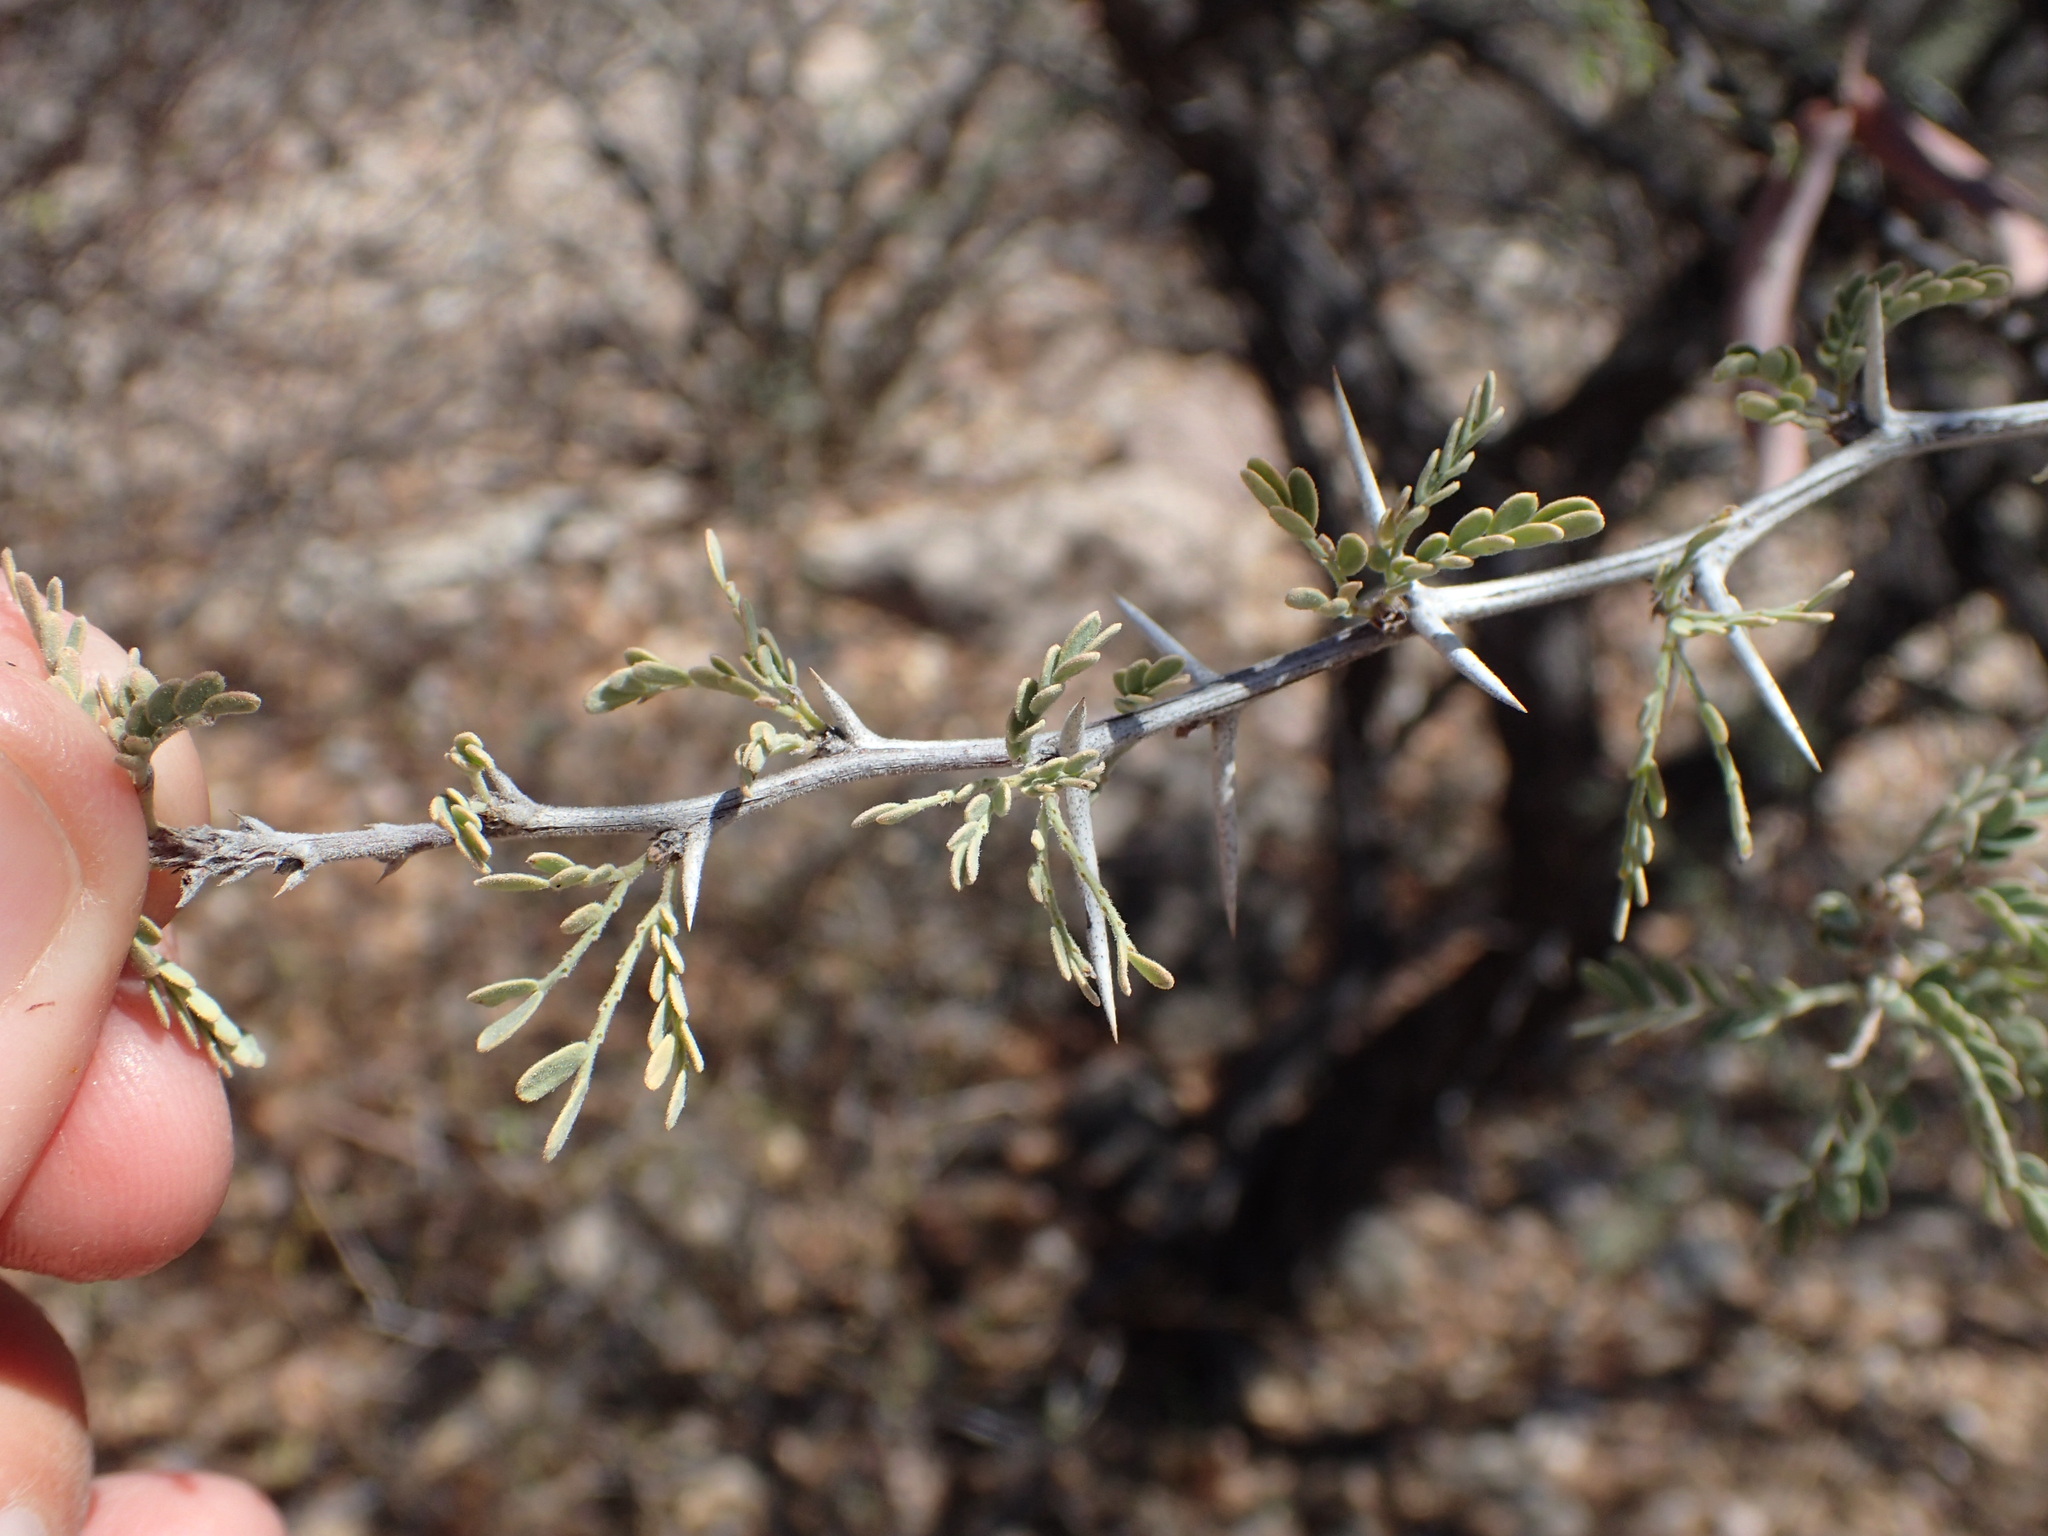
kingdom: Plantae
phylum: Tracheophyta
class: Magnoliopsida
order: Fabales
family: Fabaceae
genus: Prosopis
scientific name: Prosopis palmeri
